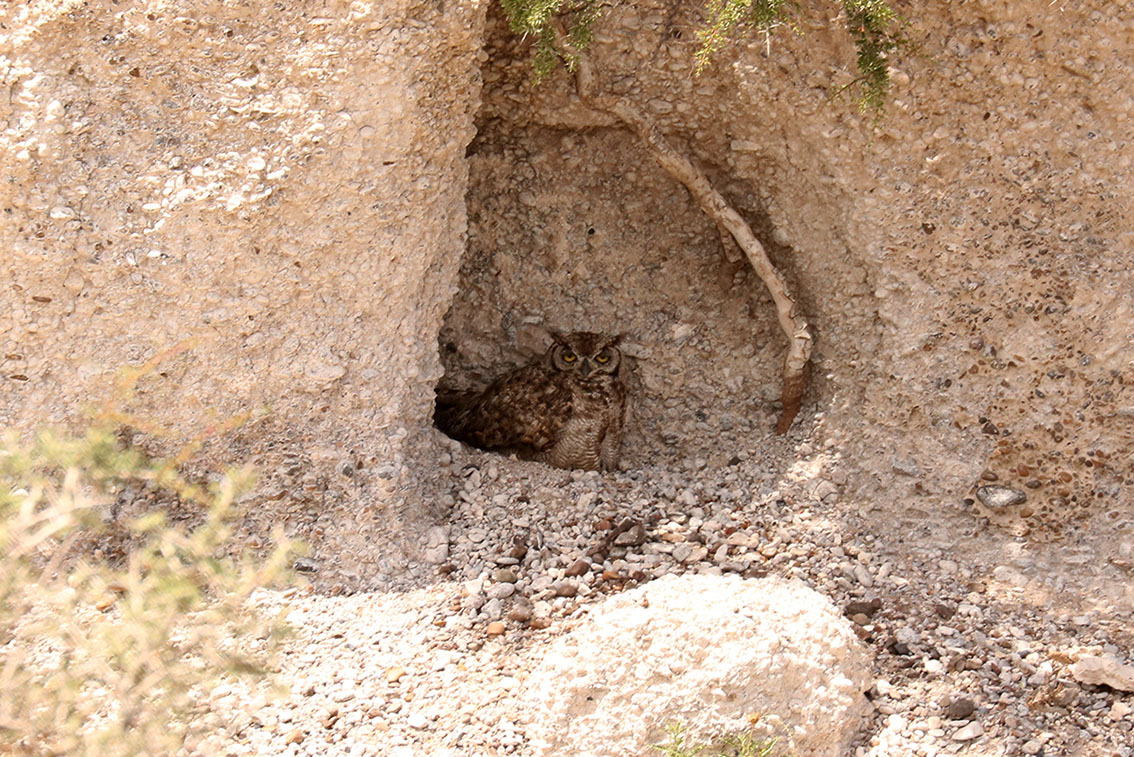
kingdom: Animalia
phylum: Chordata
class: Aves
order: Strigiformes
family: Strigidae
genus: Bubo
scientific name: Bubo magellanicus
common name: Lesser horned owl
